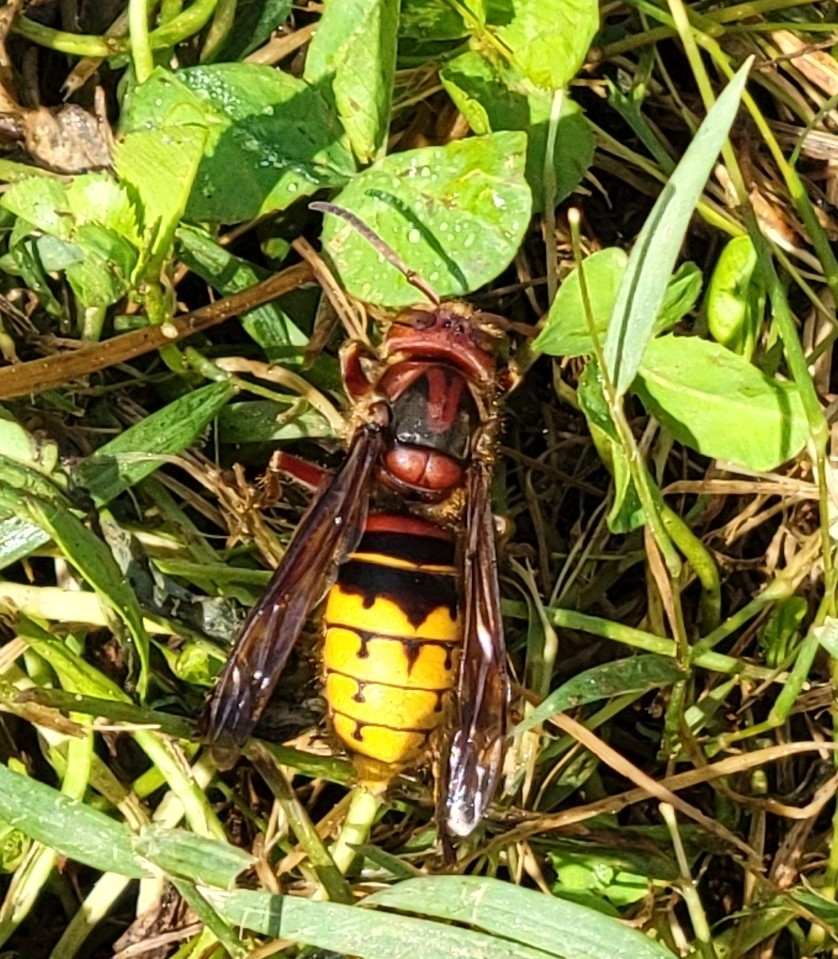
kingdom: Animalia
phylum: Arthropoda
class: Insecta
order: Hymenoptera
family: Vespidae
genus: Vespa
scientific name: Vespa crabro
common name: Hornet
